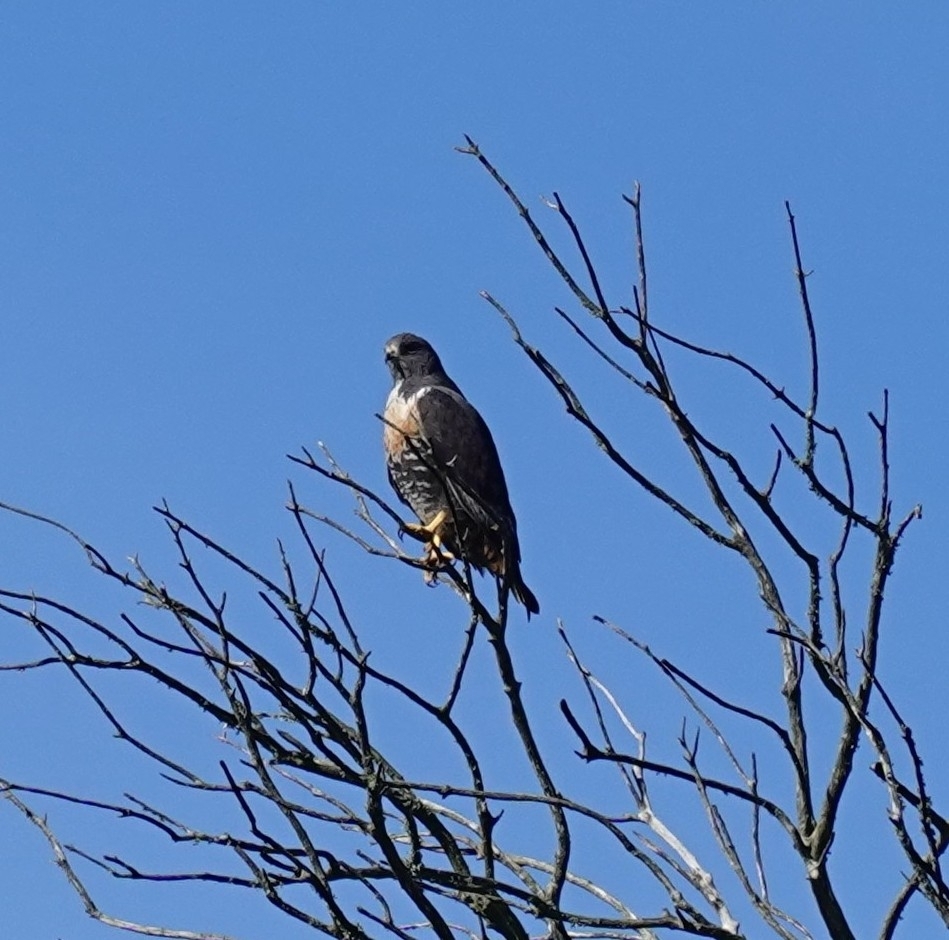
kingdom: Animalia
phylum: Chordata
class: Aves
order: Accipitriformes
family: Accipitridae
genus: Buteo
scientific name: Buteo rufofuscus
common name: Jackal buzzard
